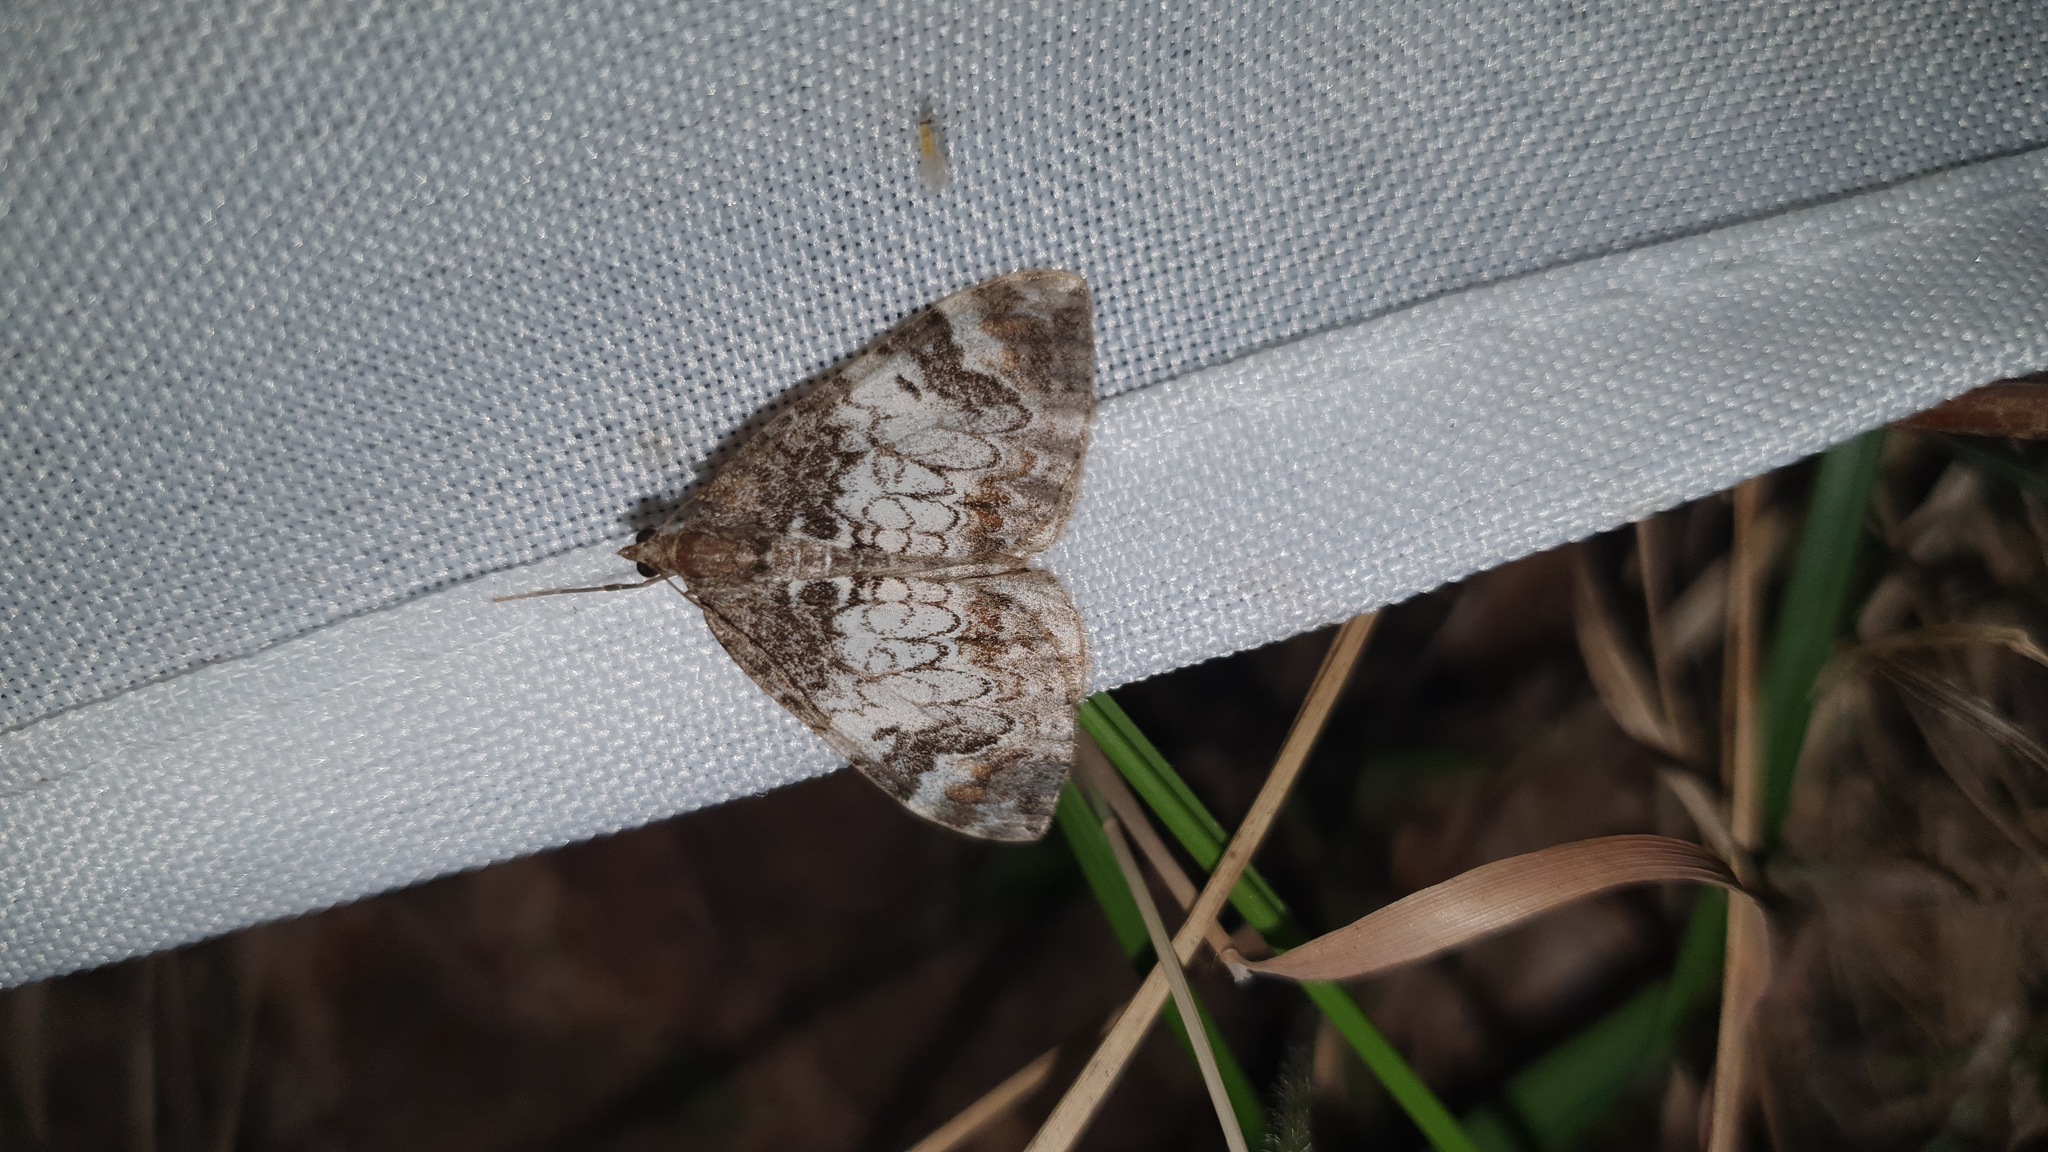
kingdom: Animalia
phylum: Arthropoda
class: Insecta
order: Lepidoptera
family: Geometridae
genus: Dysstroma
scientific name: Dysstroma truncata
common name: Common marbled carpet
